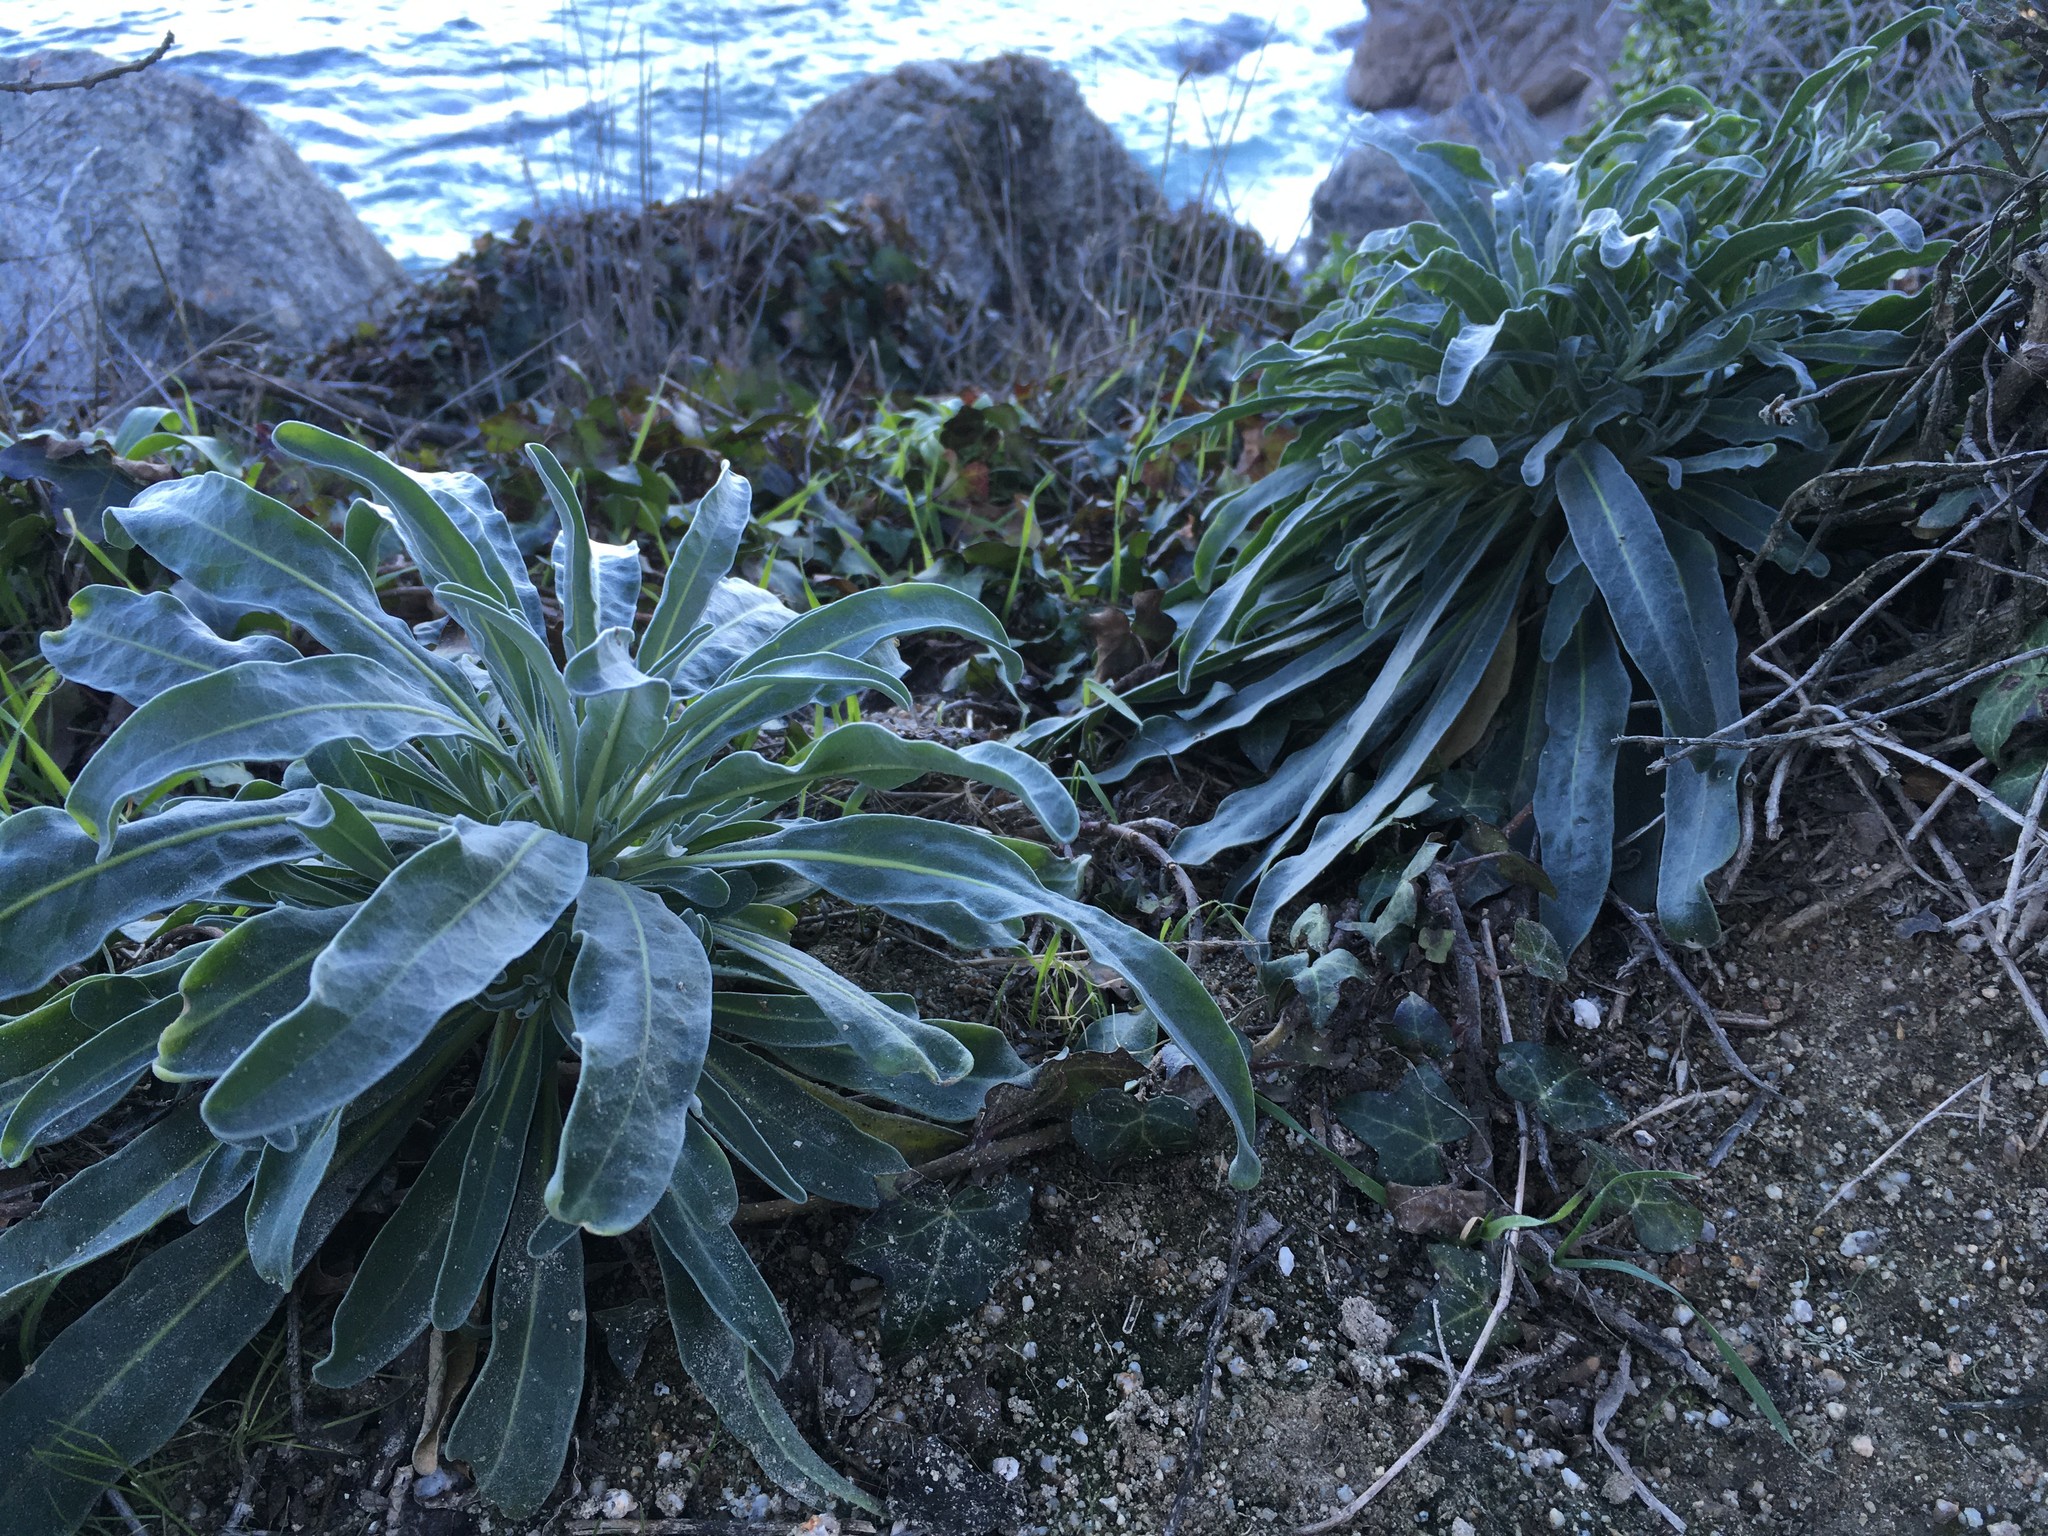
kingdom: Plantae
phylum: Tracheophyta
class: Magnoliopsida
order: Brassicales
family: Brassicaceae
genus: Matthiola
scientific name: Matthiola incana
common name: Hoary stock
